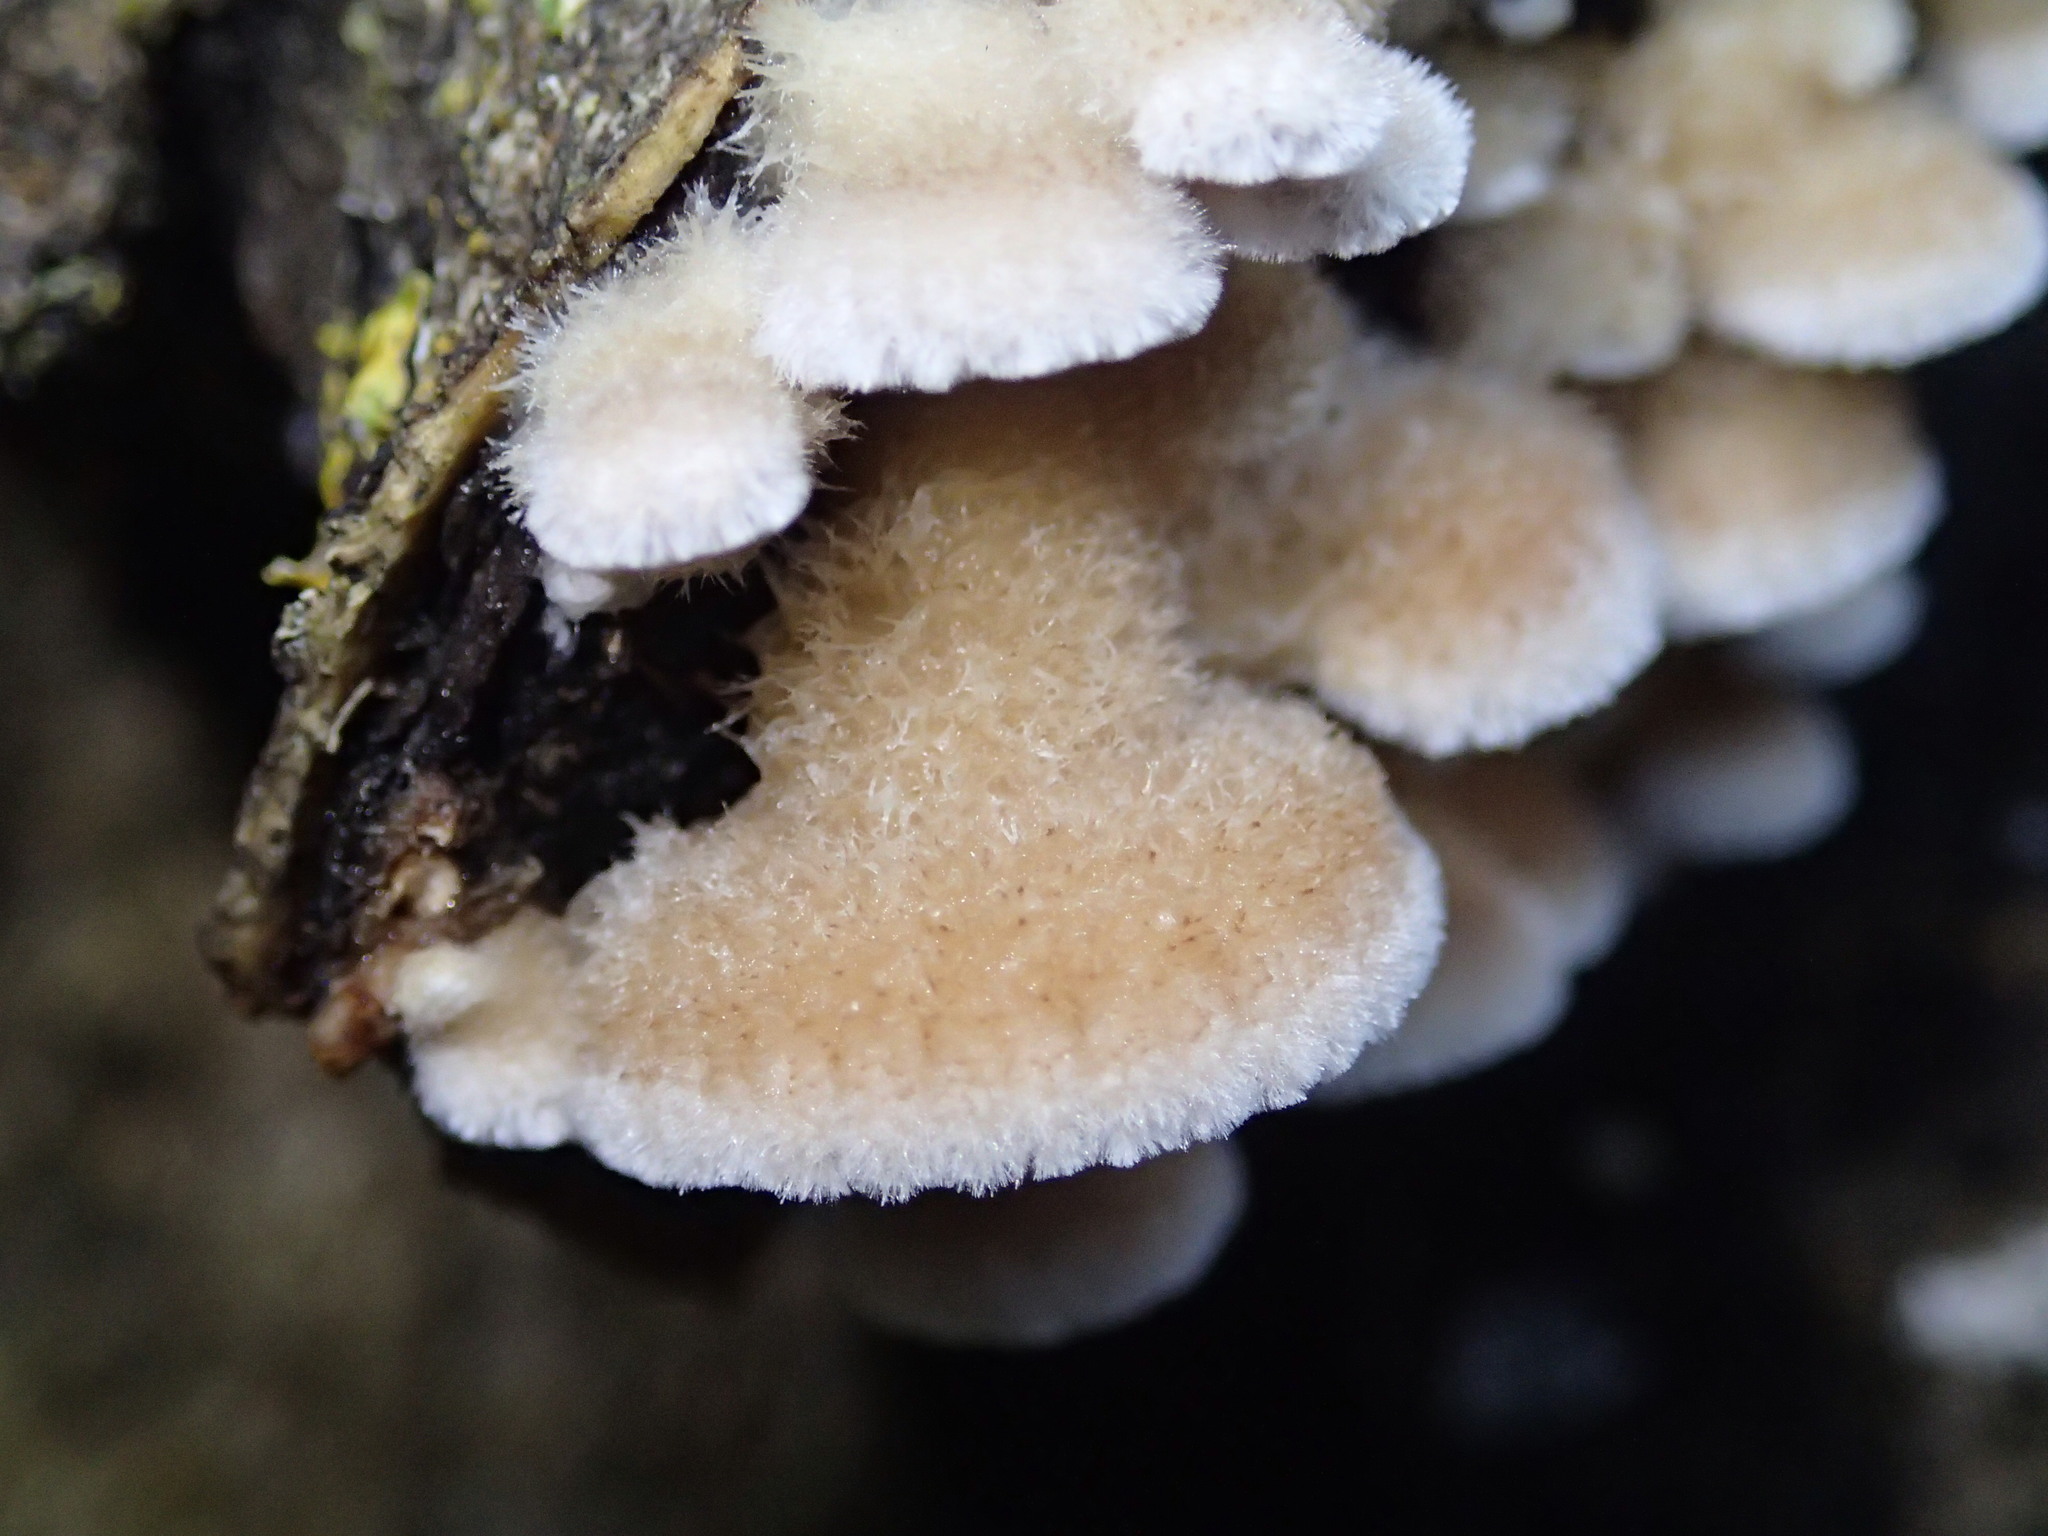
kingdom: Fungi
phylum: Basidiomycota
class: Agaricomycetes
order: Agaricales
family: Schizophyllaceae
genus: Schizophyllum
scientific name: Schizophyllum commune
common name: Common porecrust
